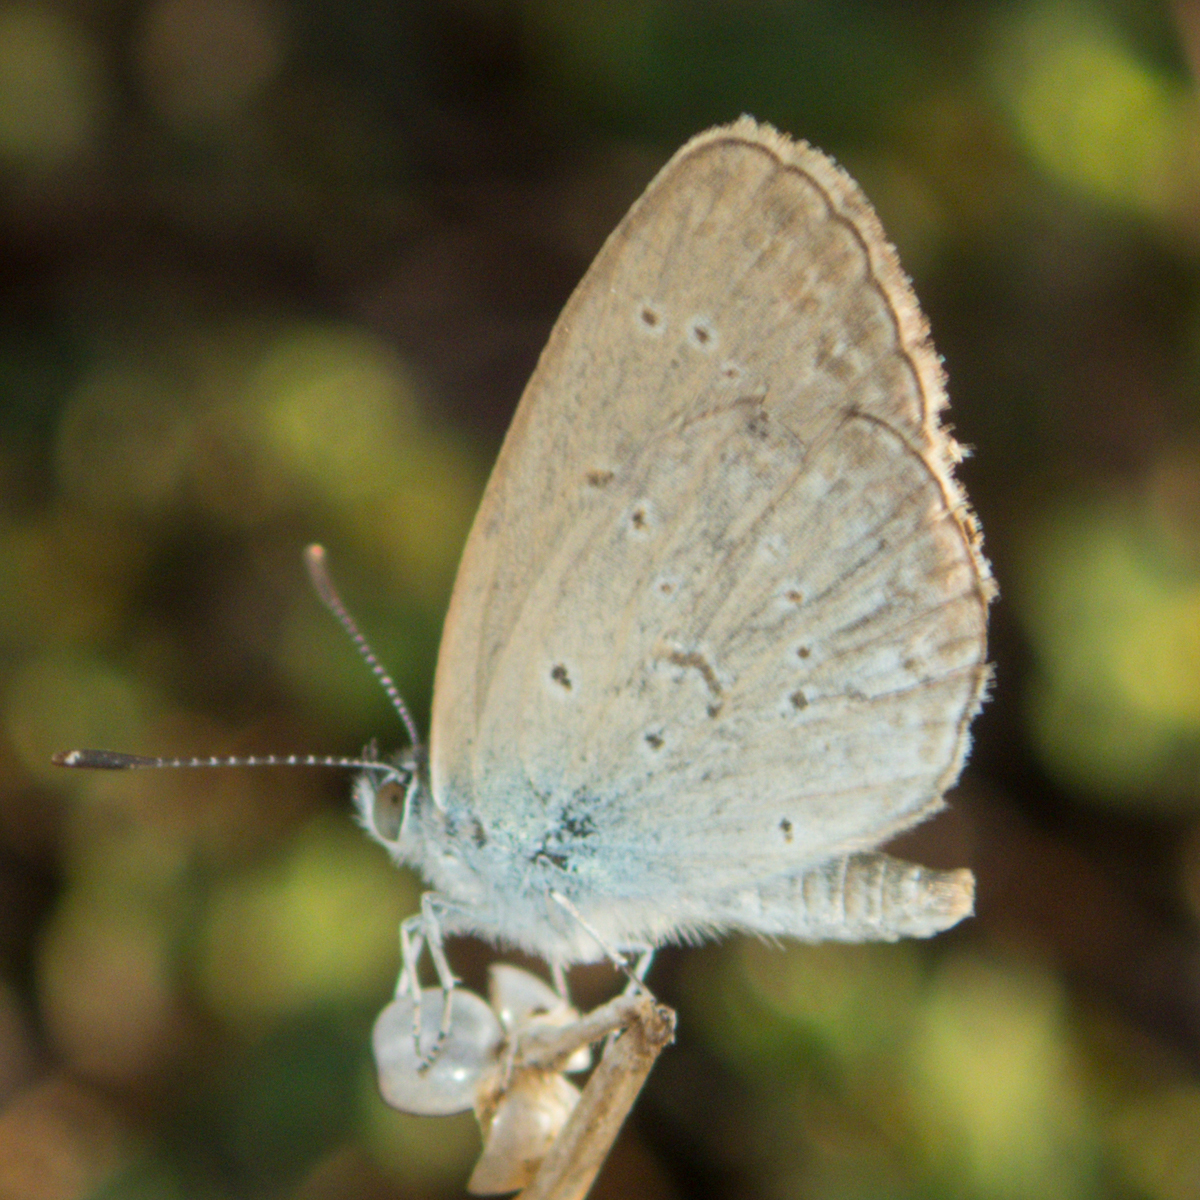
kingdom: Animalia
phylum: Arthropoda
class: Insecta
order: Lepidoptera
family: Lycaenidae
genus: Zizina
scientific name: Zizina otis
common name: Lesser grass blue
